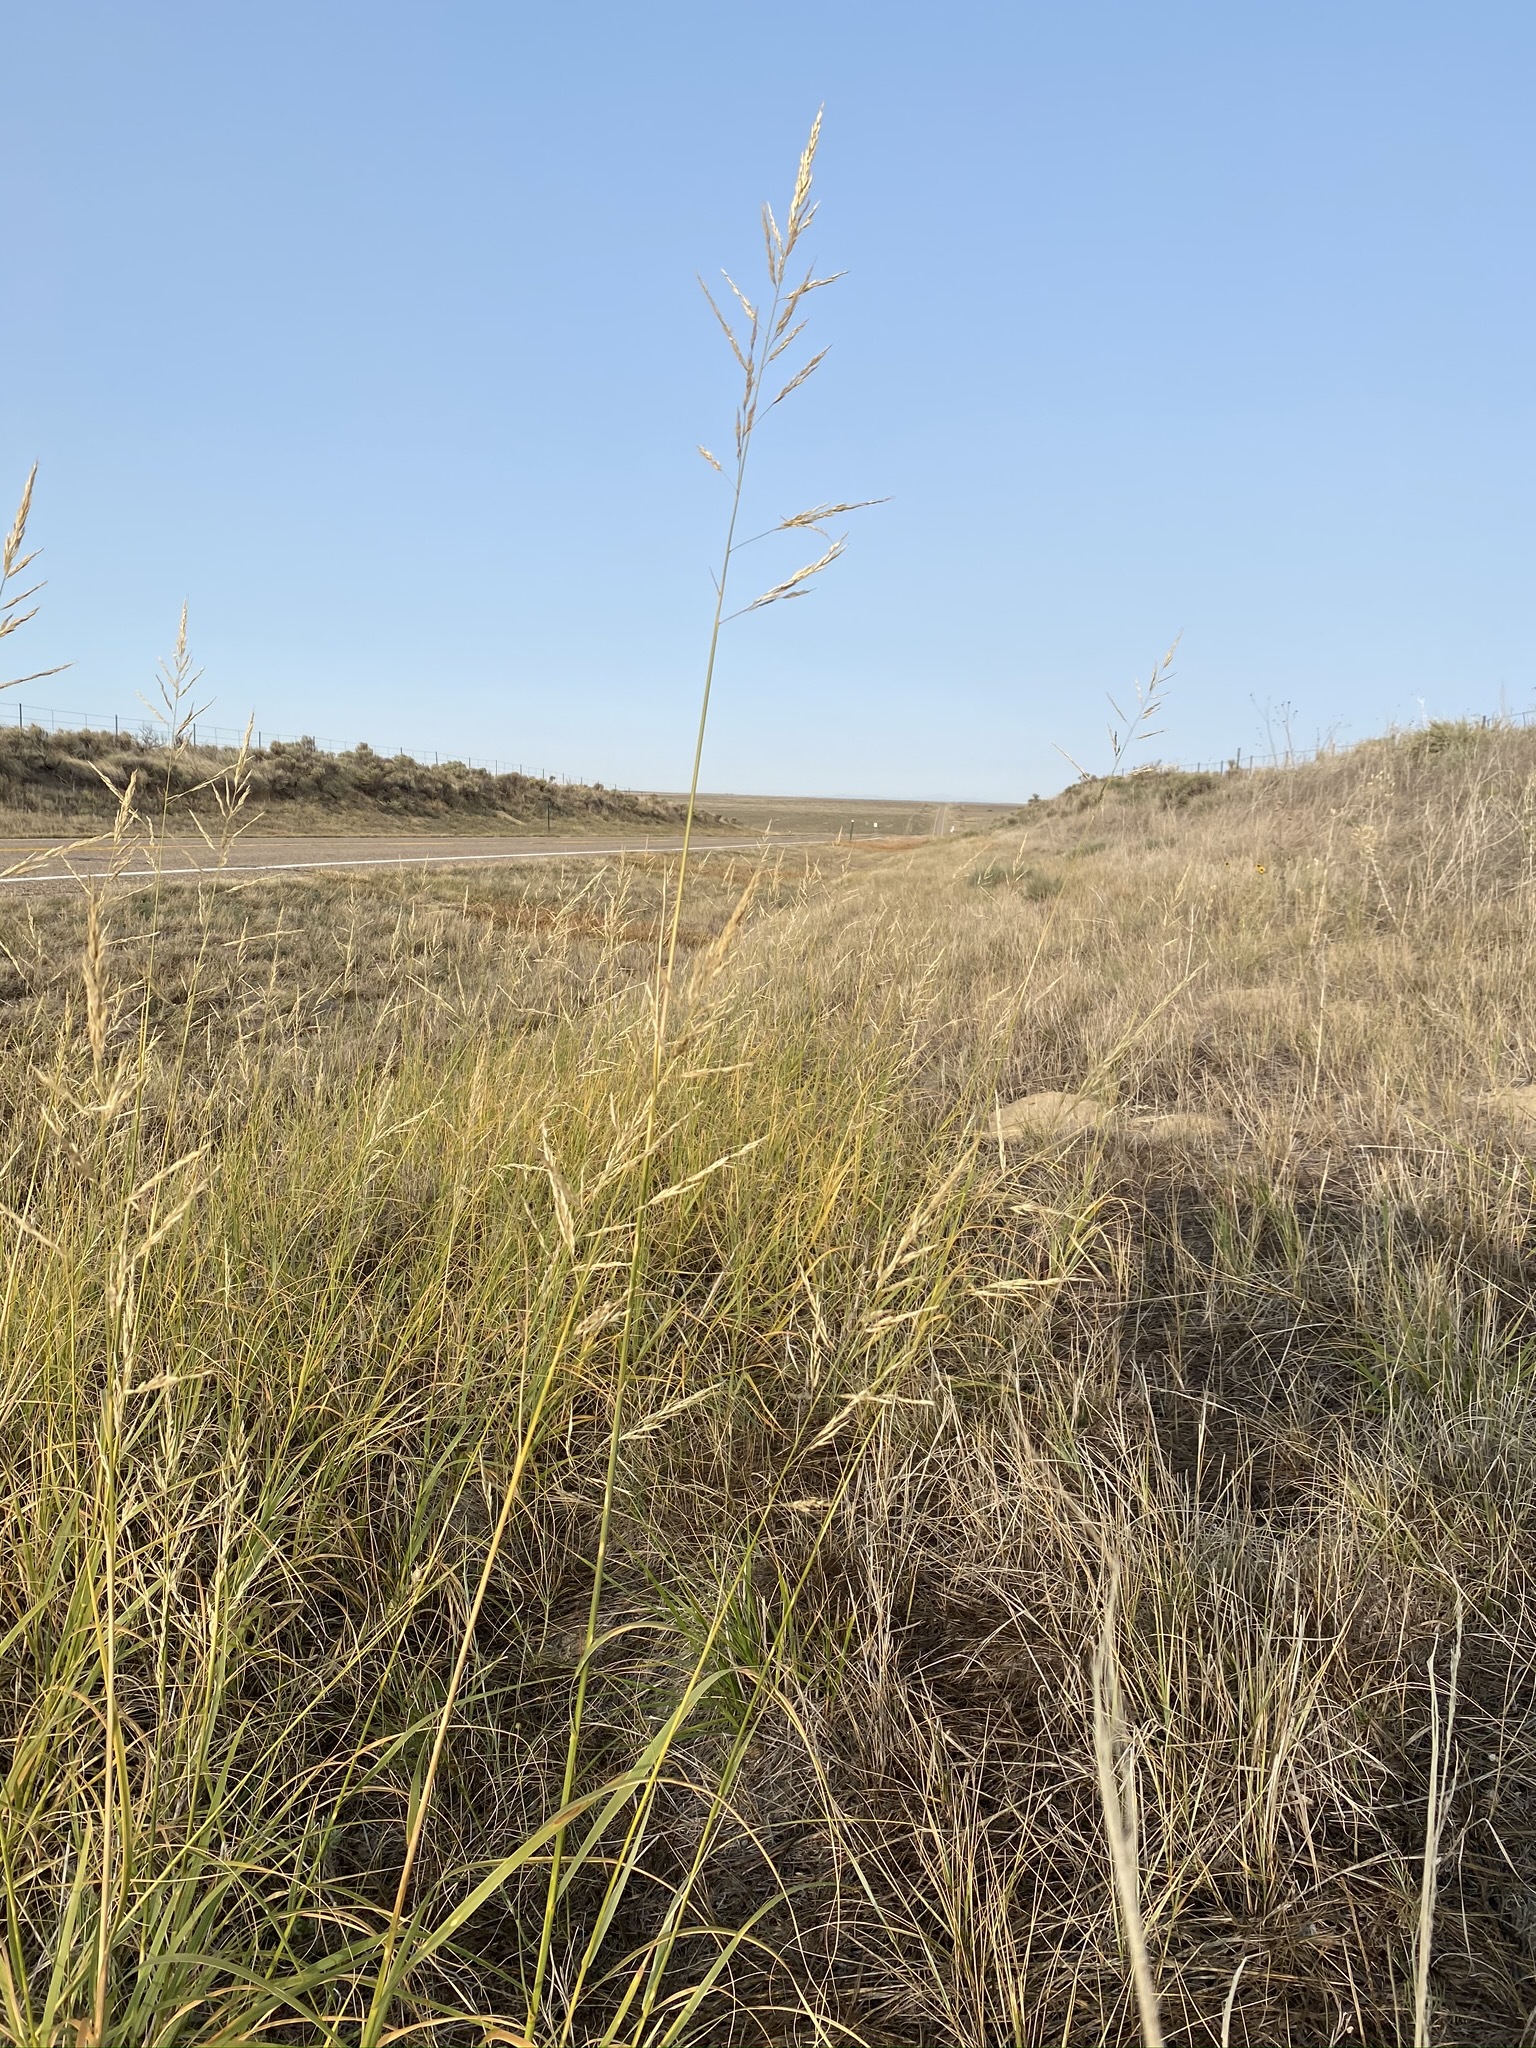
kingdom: Plantae
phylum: Tracheophyta
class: Liliopsida
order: Poales
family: Poaceae
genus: Sporobolus
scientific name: Sporobolus rigidus
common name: Prairie sandreed
